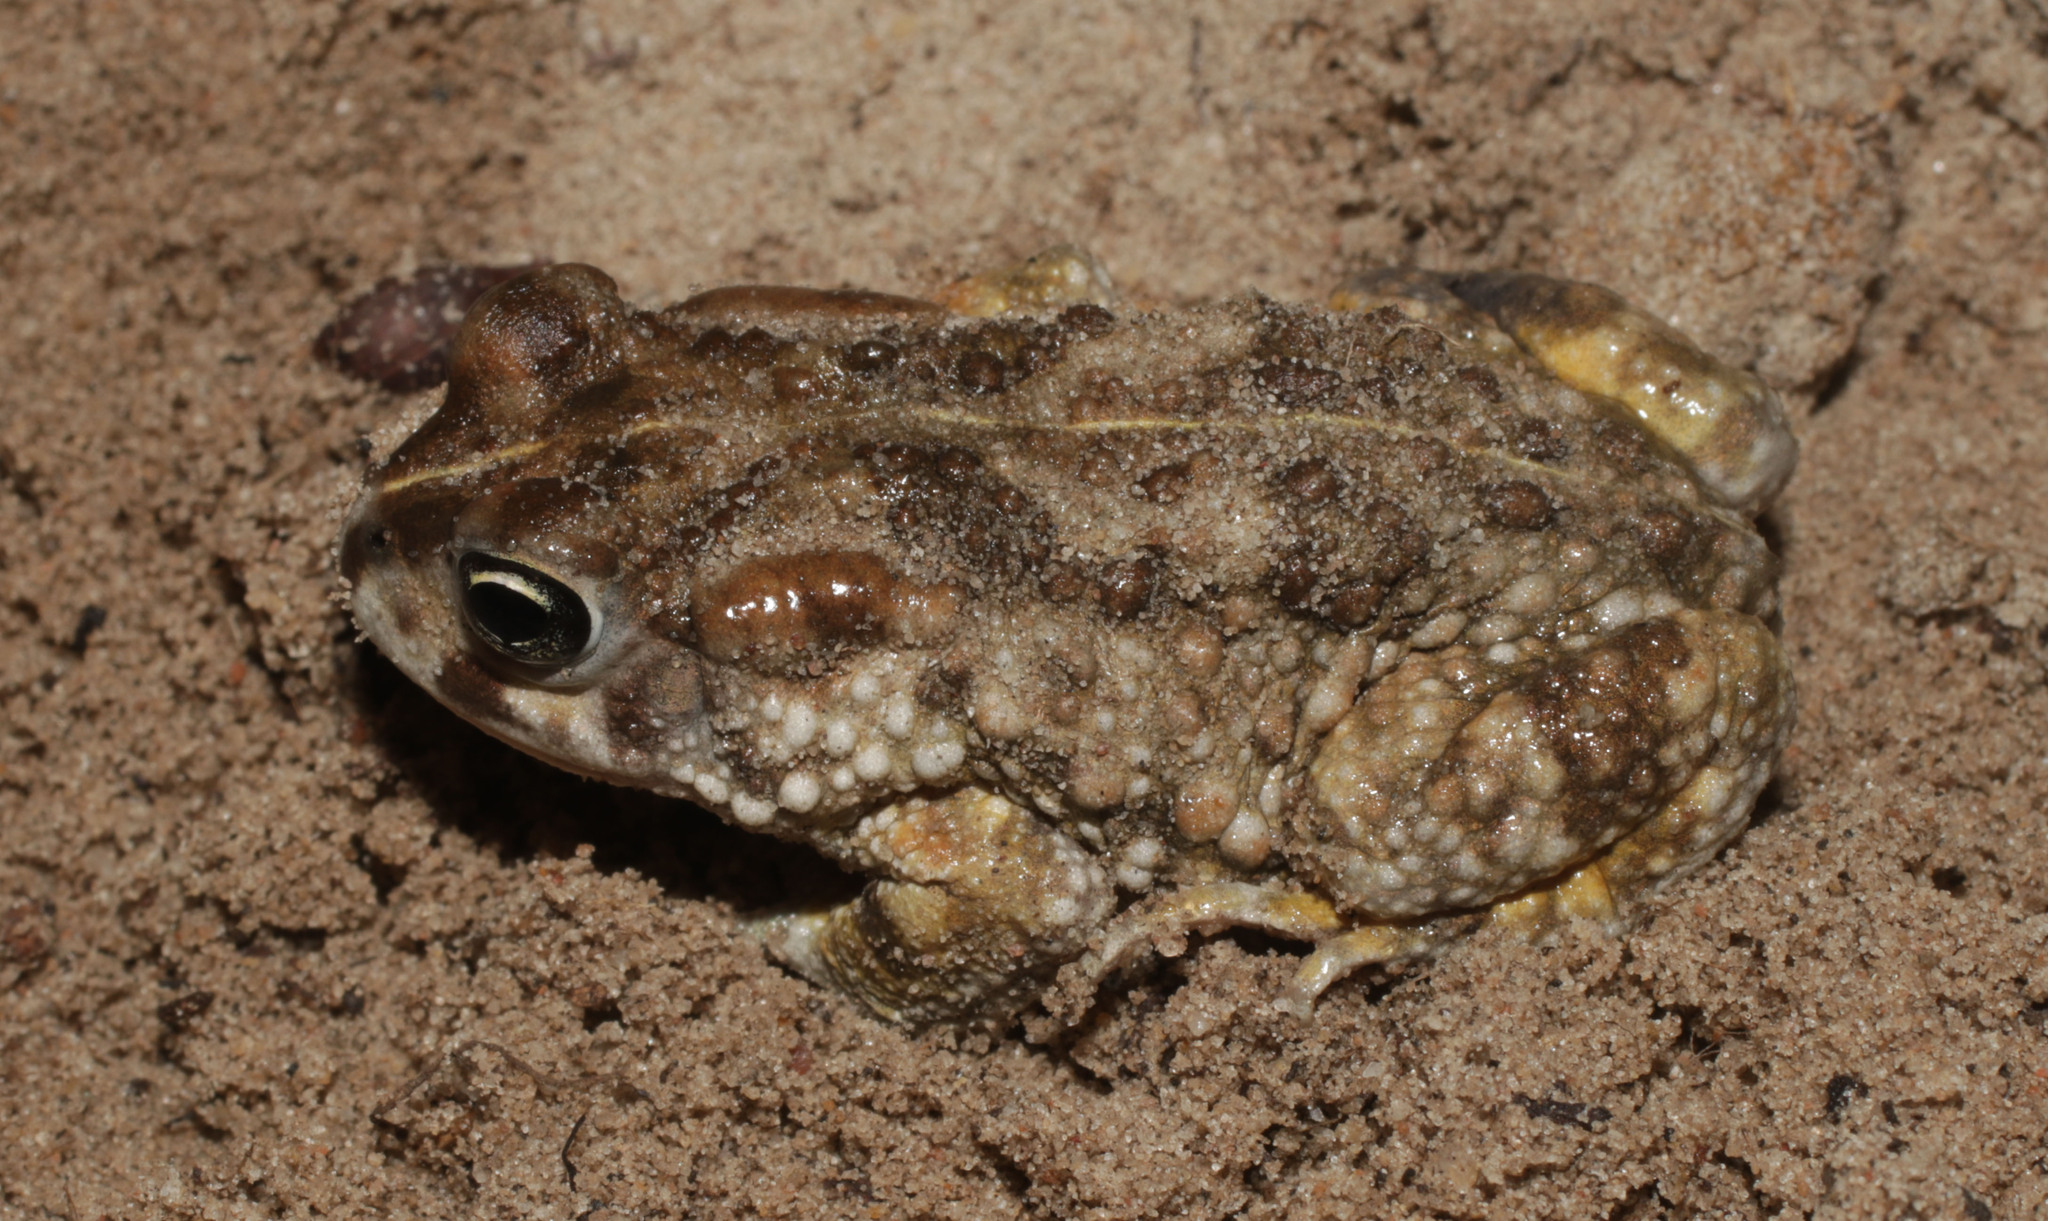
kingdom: Animalia
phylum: Chordata
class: Amphibia
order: Anura
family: Bufonidae
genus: Vandijkophrynus
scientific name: Vandijkophrynus angusticeps
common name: Sand toad
